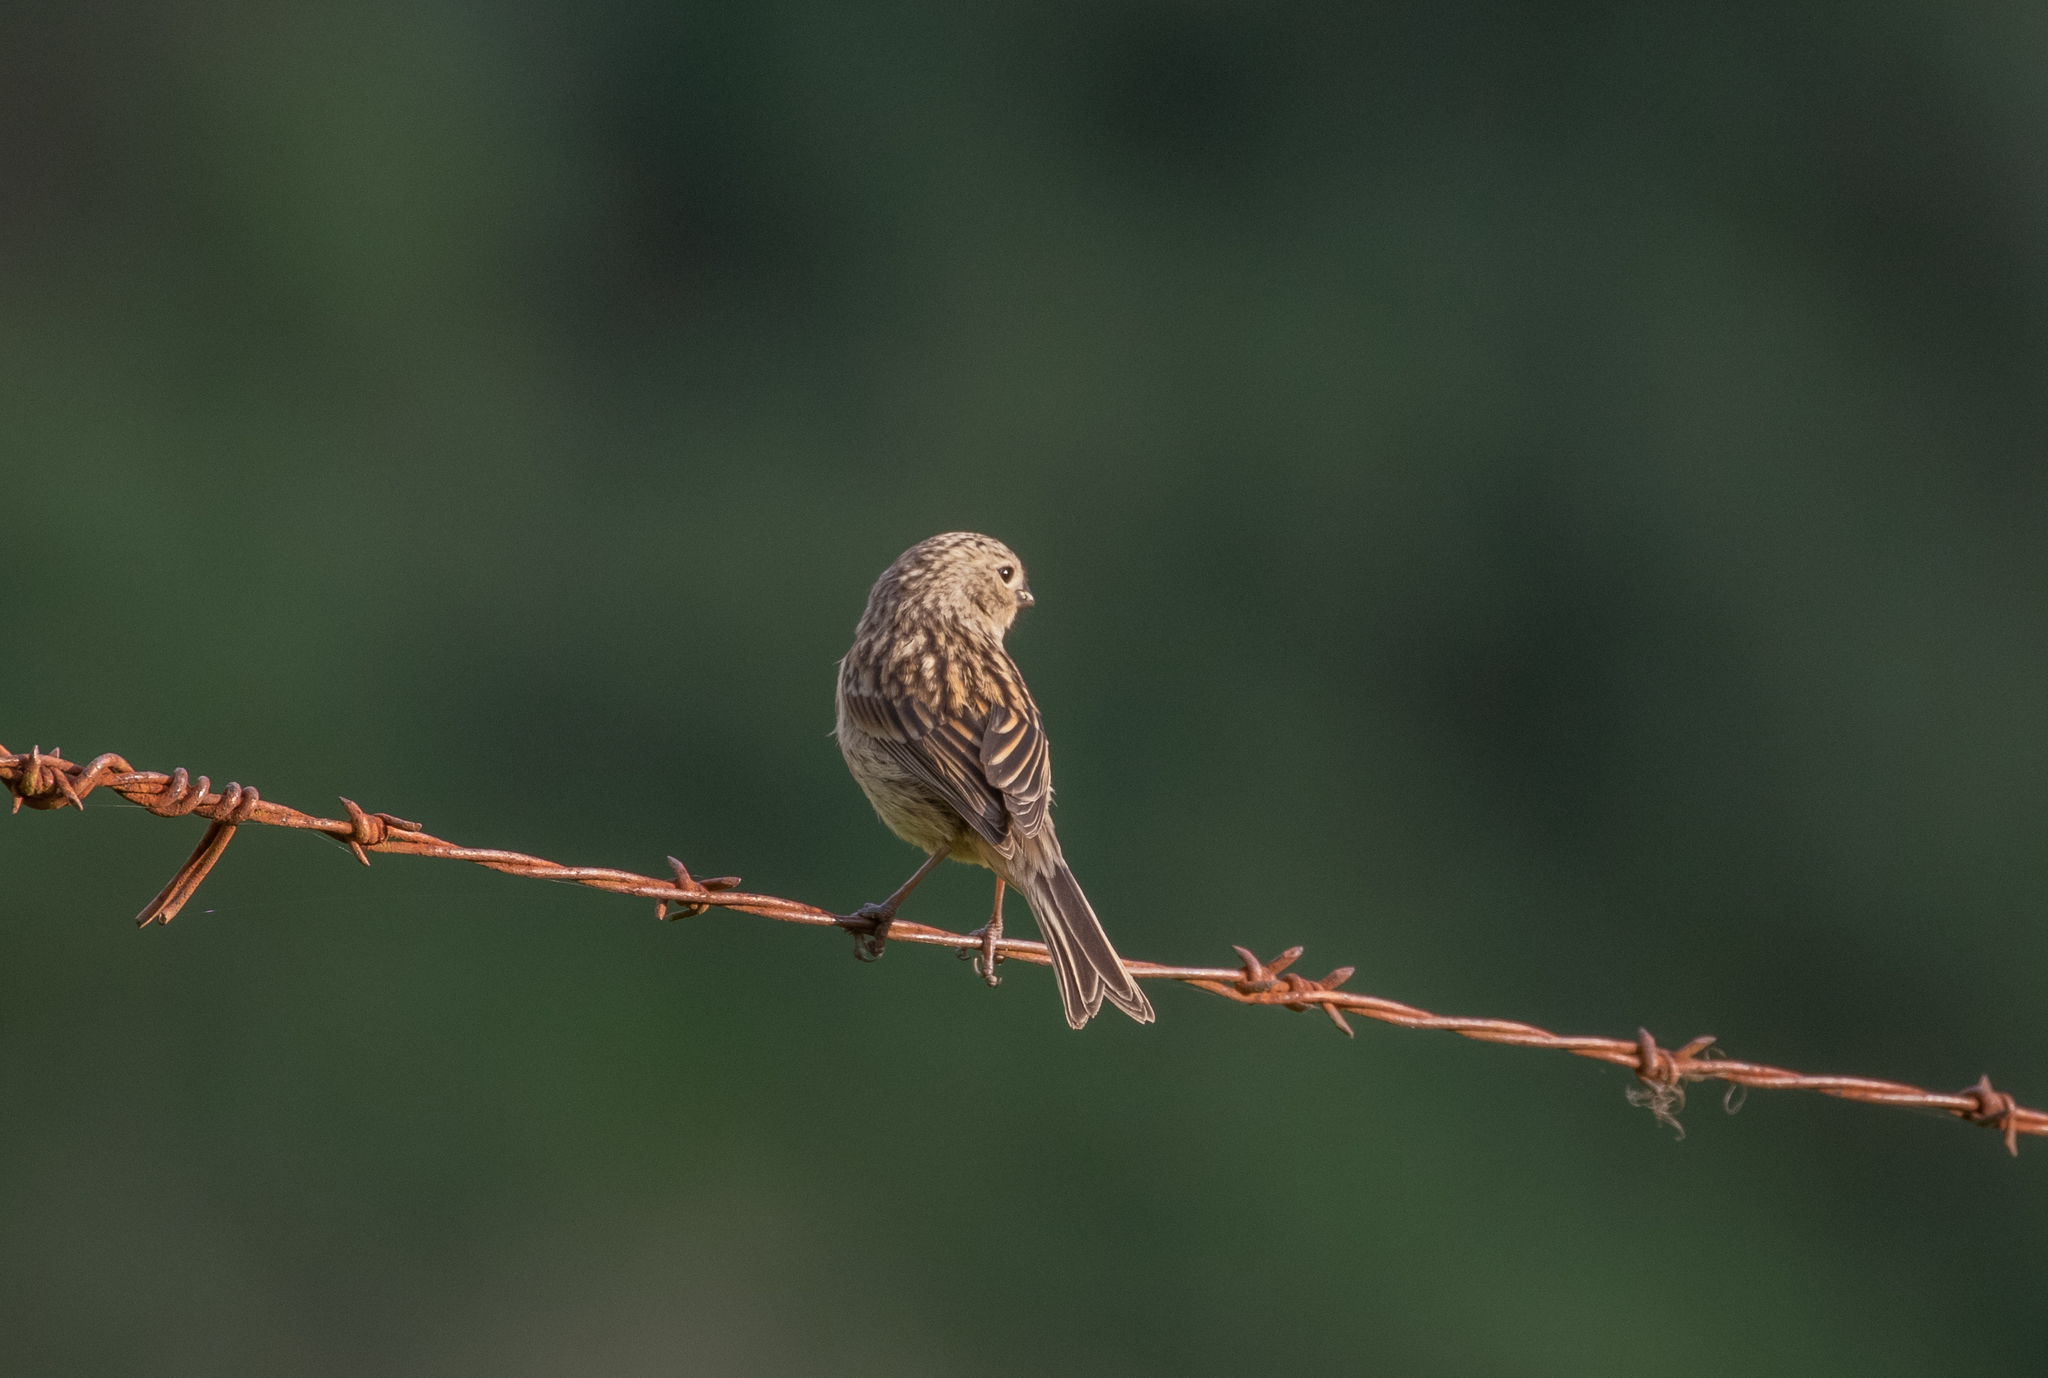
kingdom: Animalia
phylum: Chordata
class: Aves
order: Passeriformes
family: Thraupidae
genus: Catamenia
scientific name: Catamenia inornata
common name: Plain-colored seedeater
